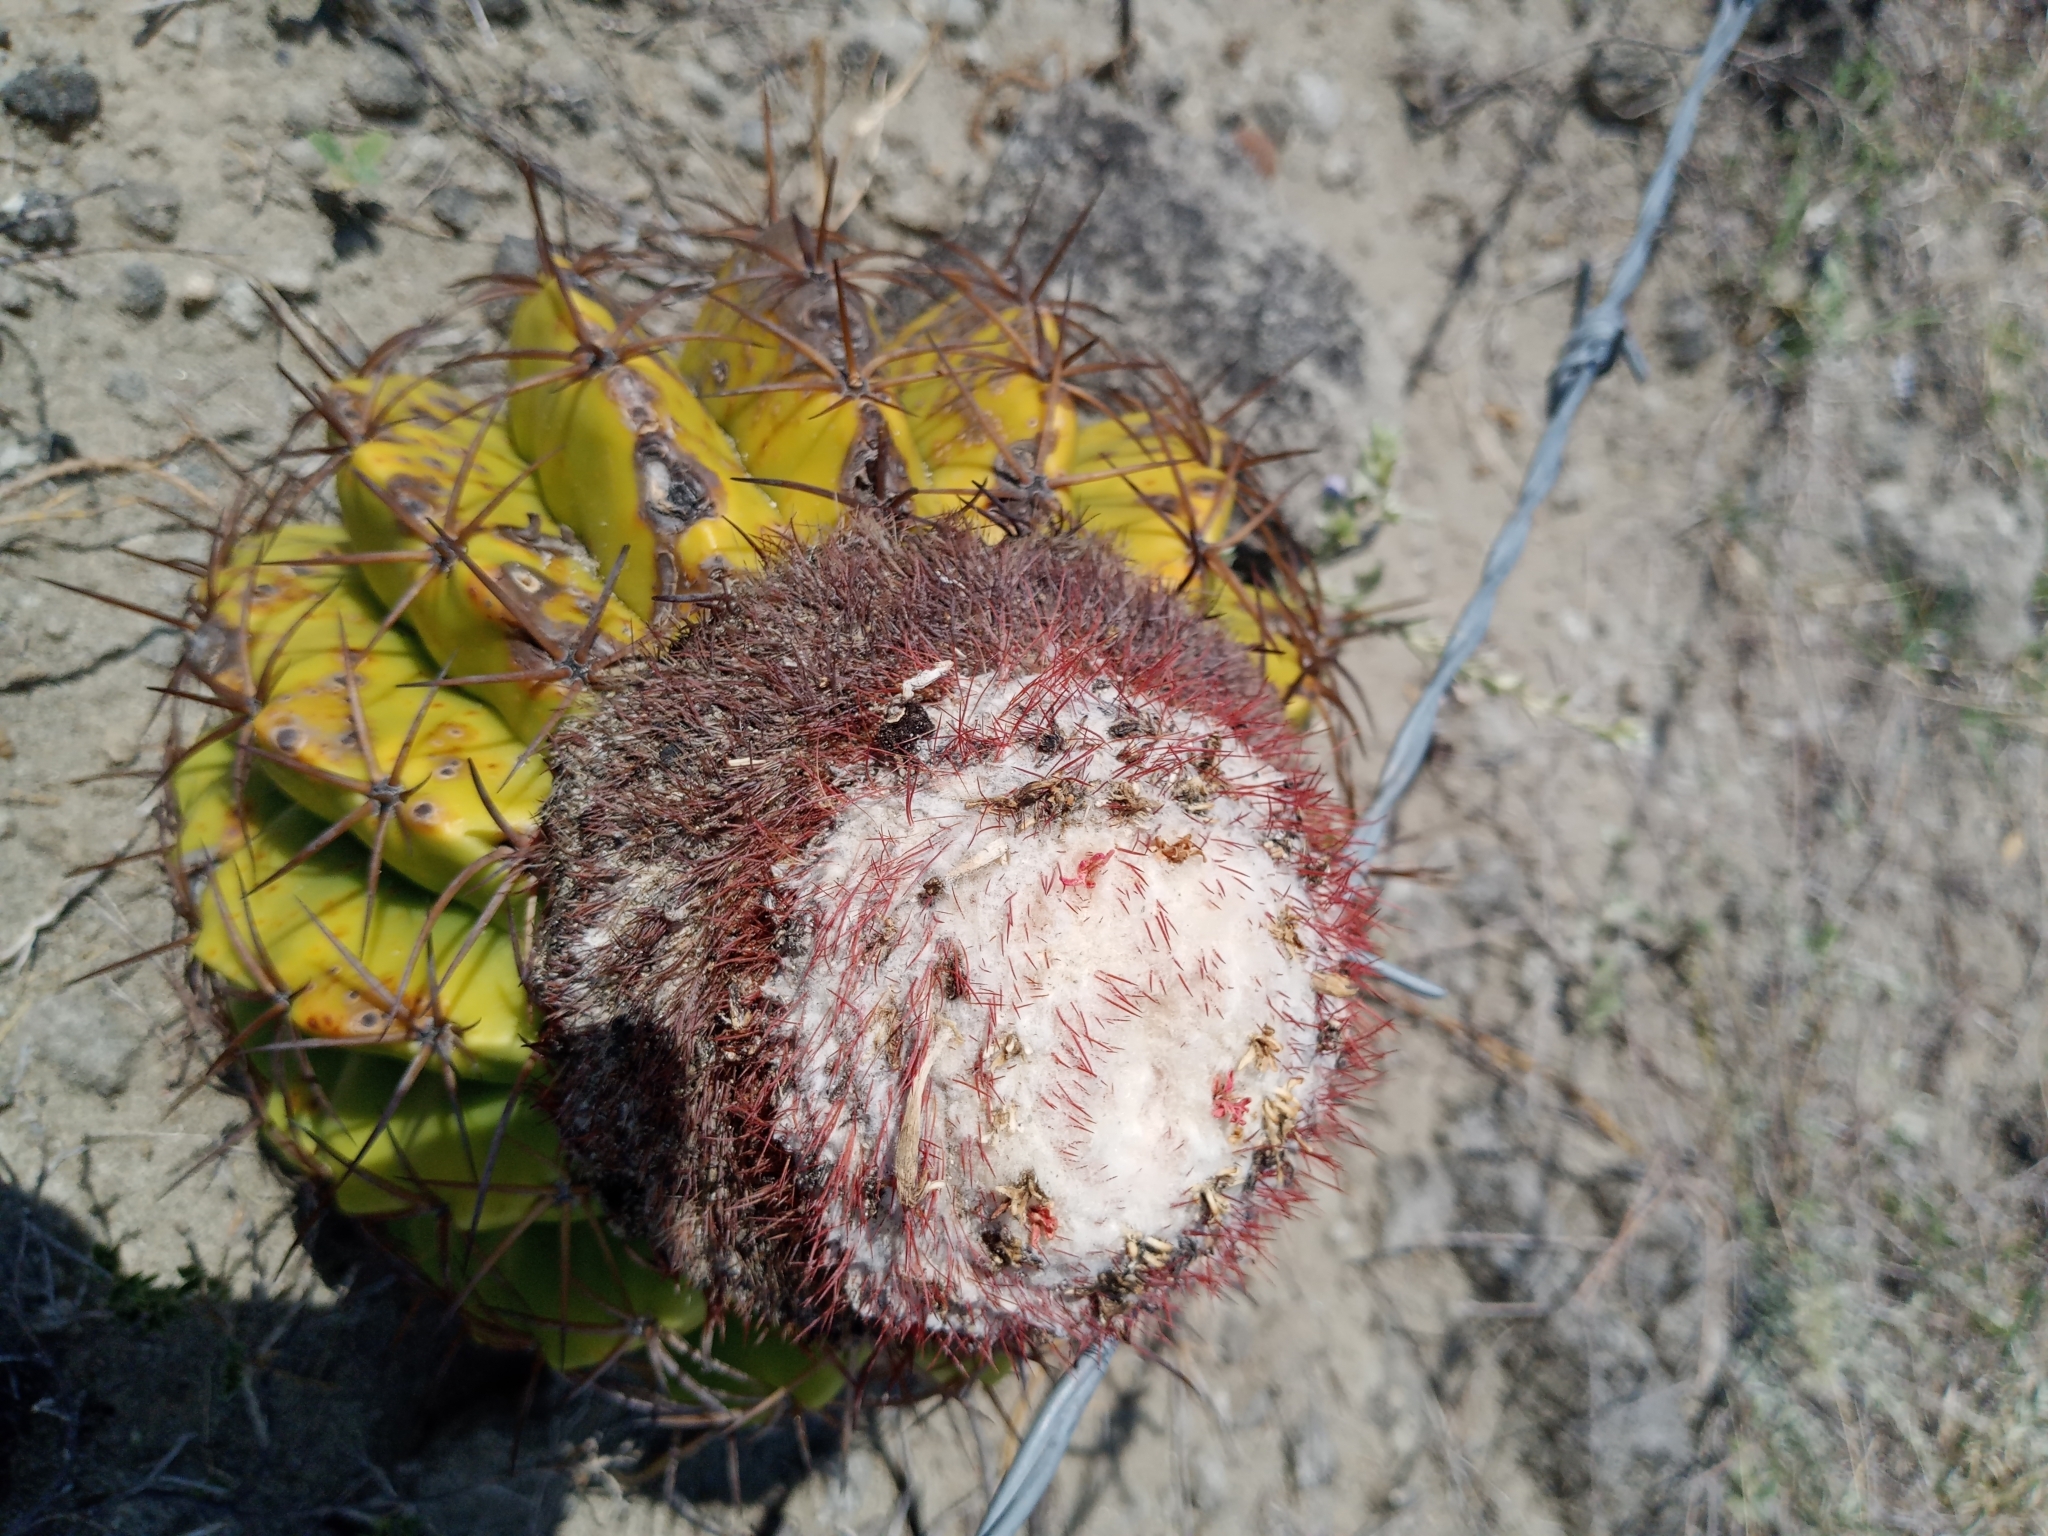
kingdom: Plantae
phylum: Tracheophyta
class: Magnoliopsida
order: Caryophyllales
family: Cactaceae
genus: Melocactus
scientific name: Melocactus curvispinus
